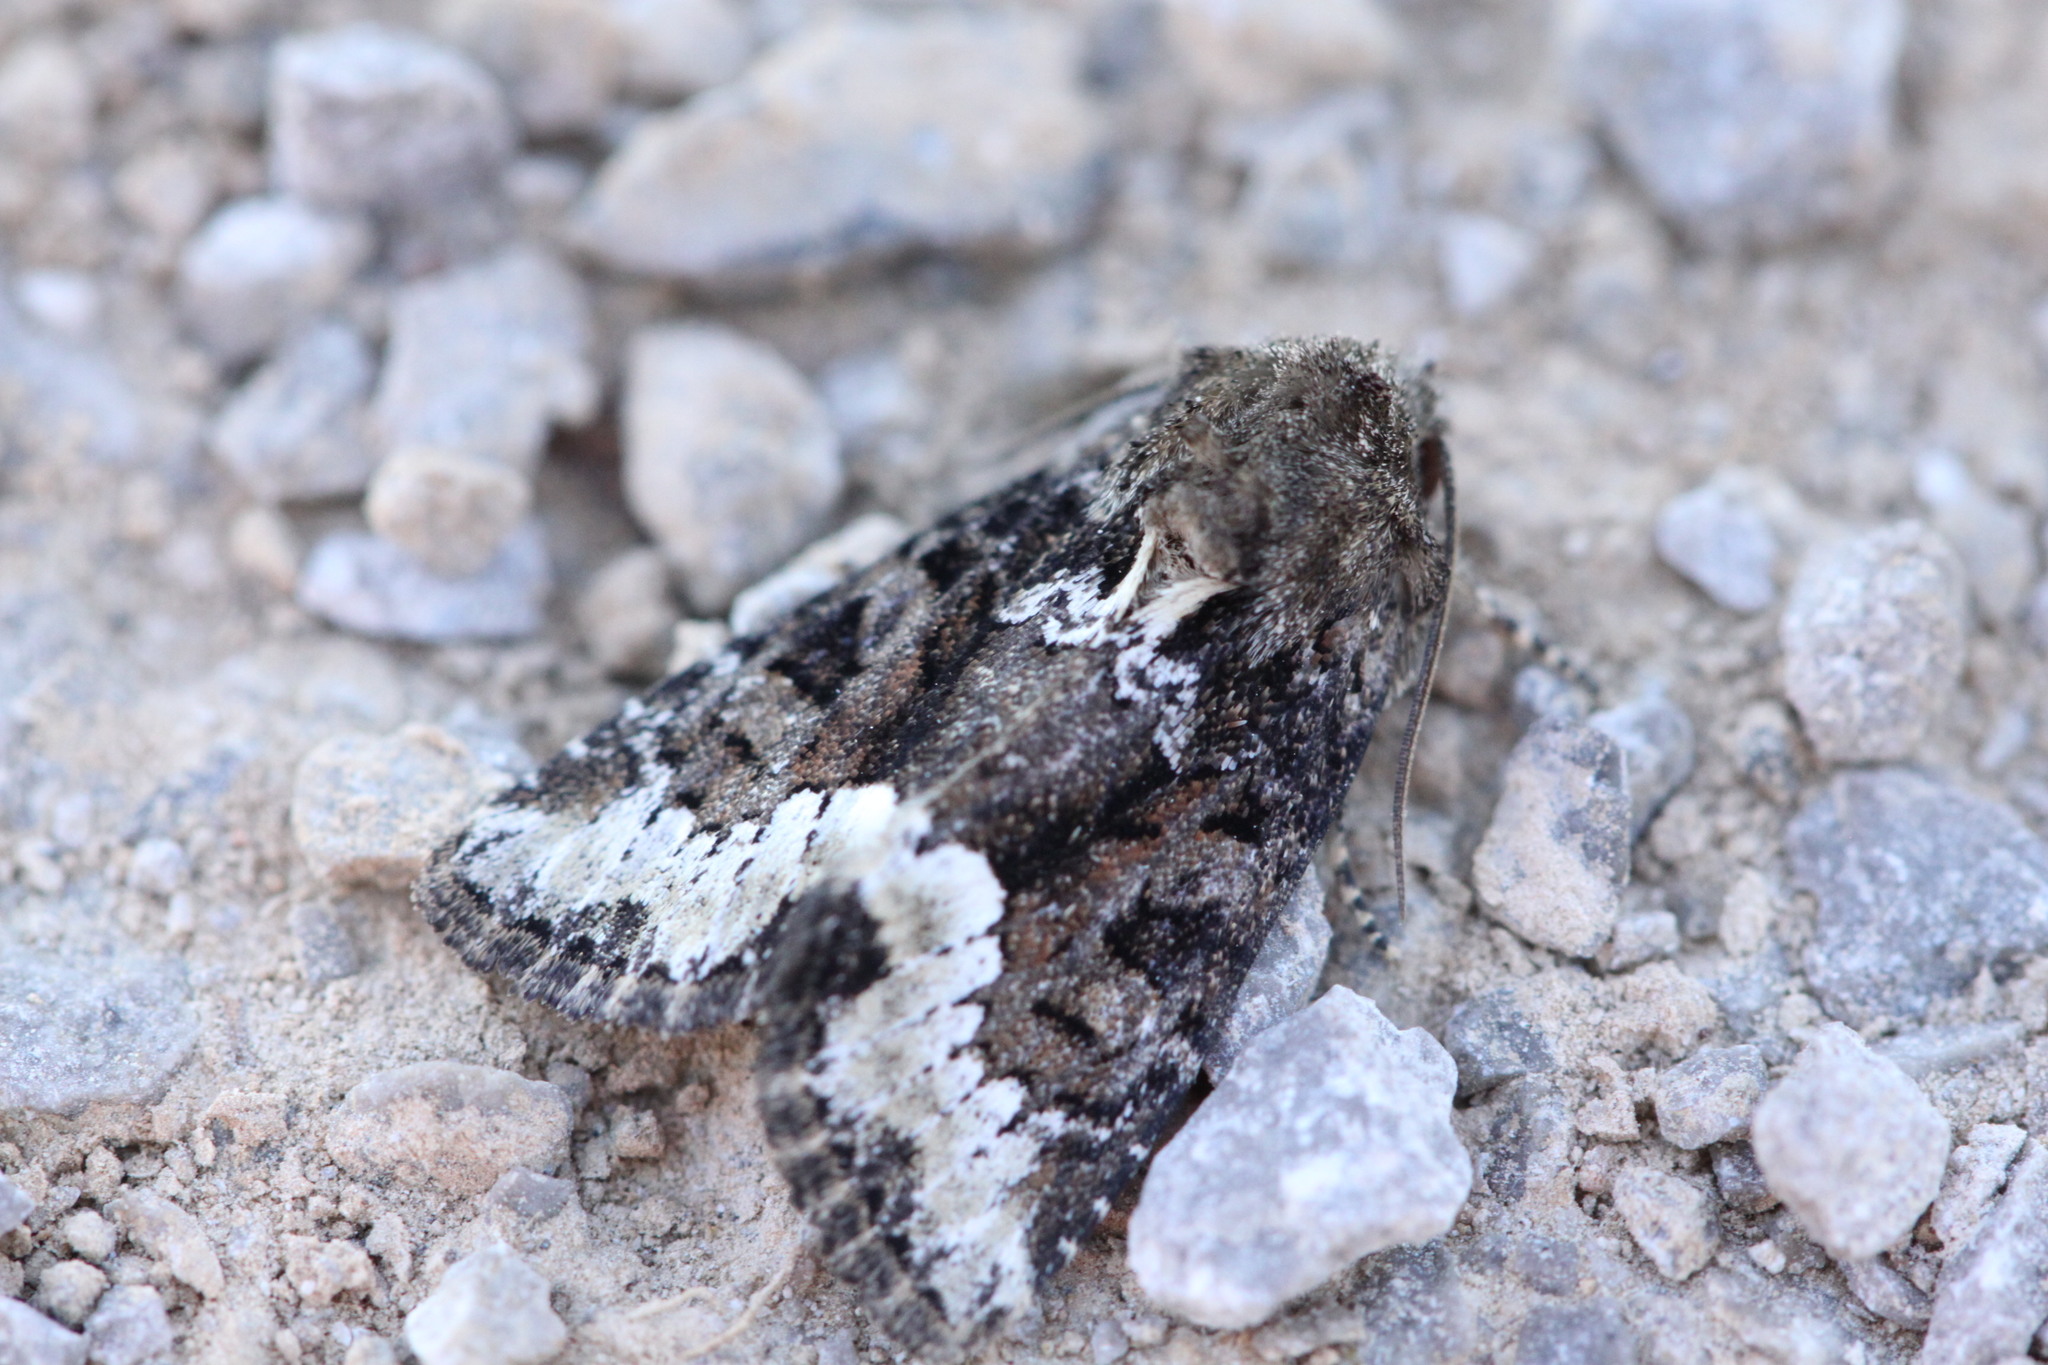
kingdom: Animalia
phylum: Arthropoda
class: Insecta
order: Lepidoptera
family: Noctuidae
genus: Oligia
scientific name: Oligia latruncula
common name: Tawny marbled minor
